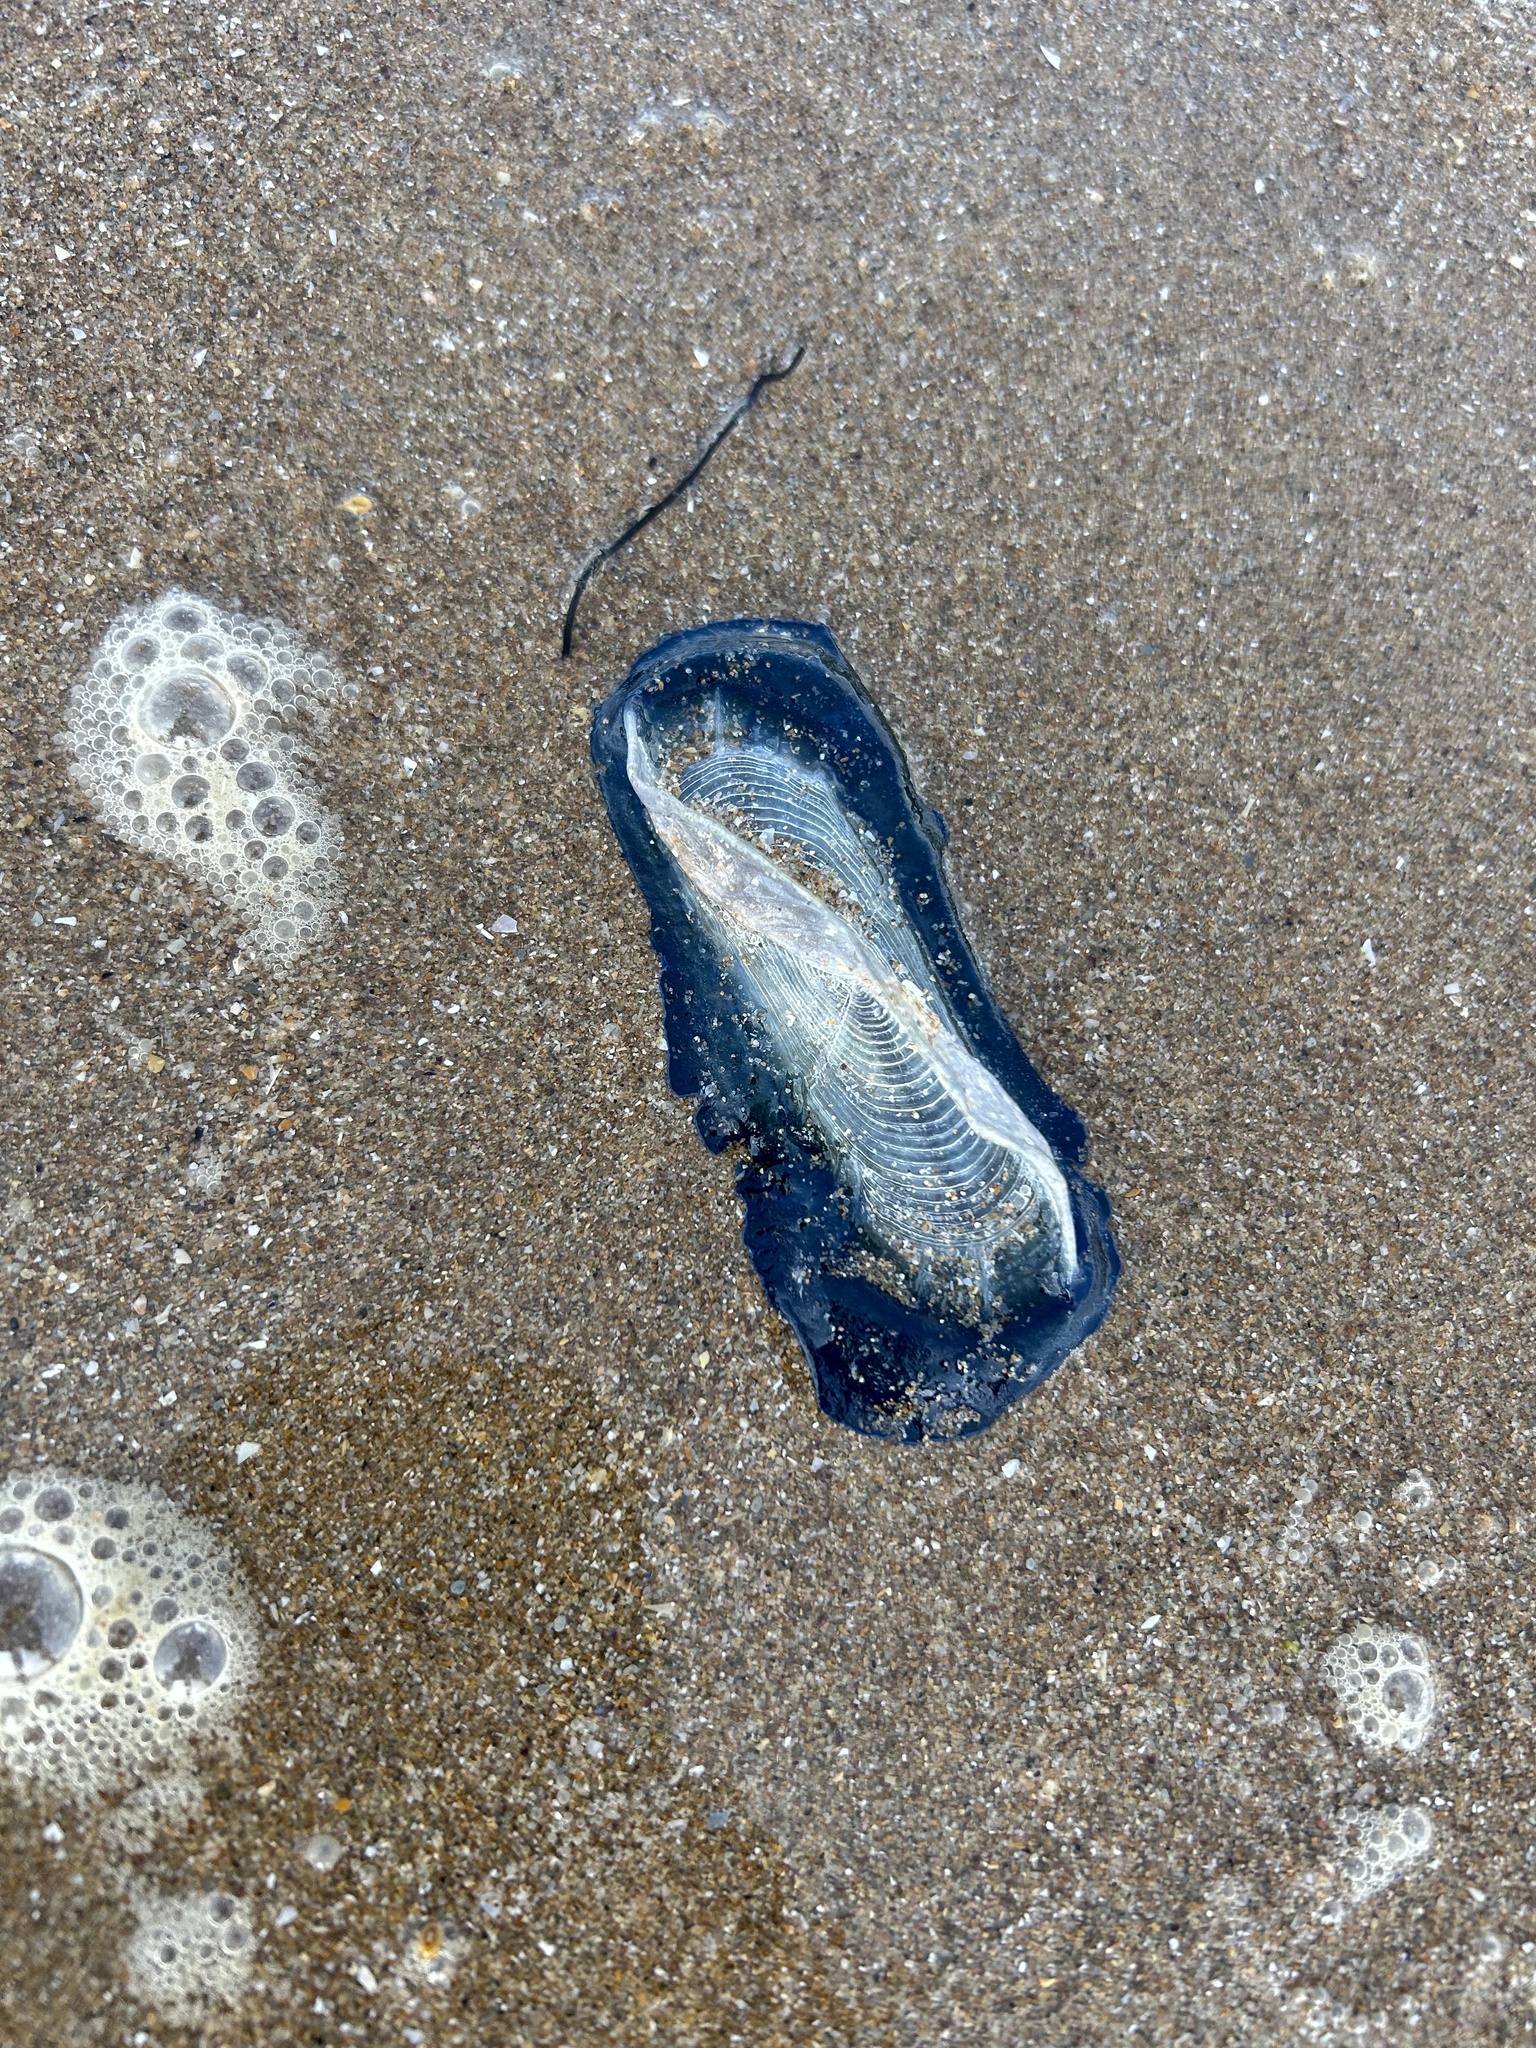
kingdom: Animalia
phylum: Cnidaria
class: Hydrozoa
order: Anthoathecata
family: Porpitidae
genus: Velella
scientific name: Velella velella
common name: By-the-wind-sailor
